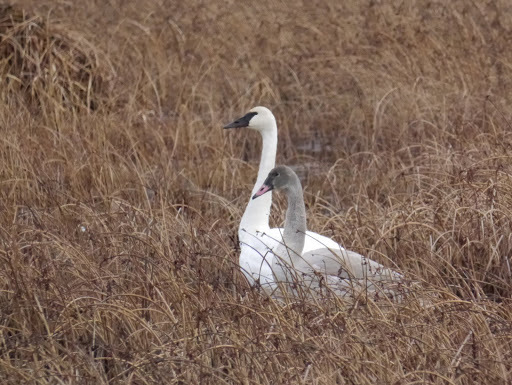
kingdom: Animalia
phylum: Chordata
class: Aves
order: Anseriformes
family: Anatidae
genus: Cygnus
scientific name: Cygnus buccinator
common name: Trumpeter swan
